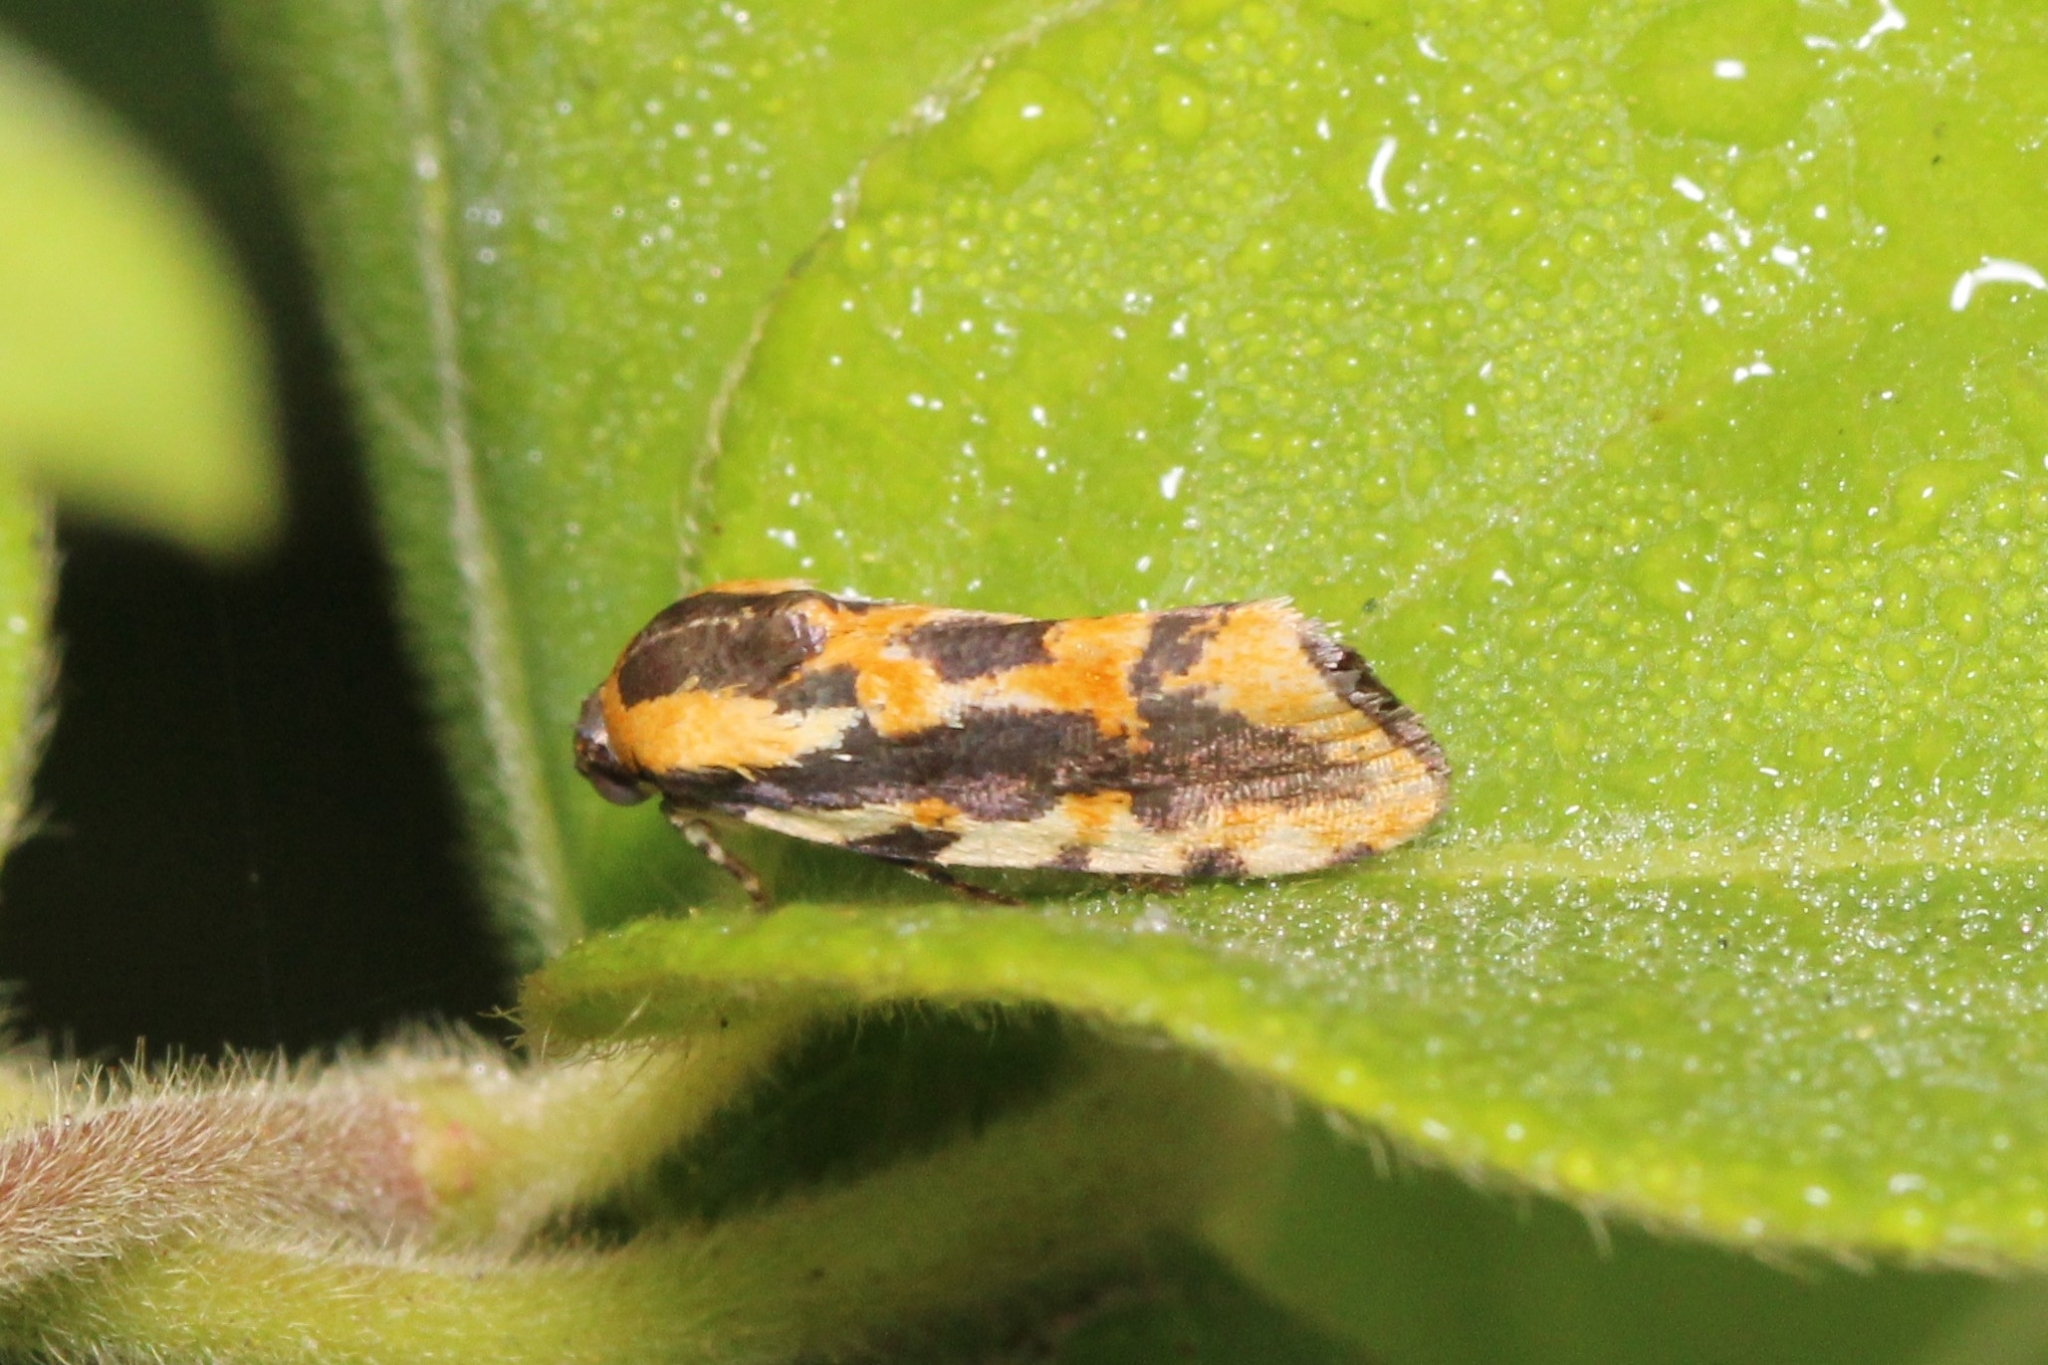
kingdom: Animalia
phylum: Arthropoda
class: Insecta
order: Lepidoptera
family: Noctuidae
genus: Acontia
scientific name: Acontia leo
